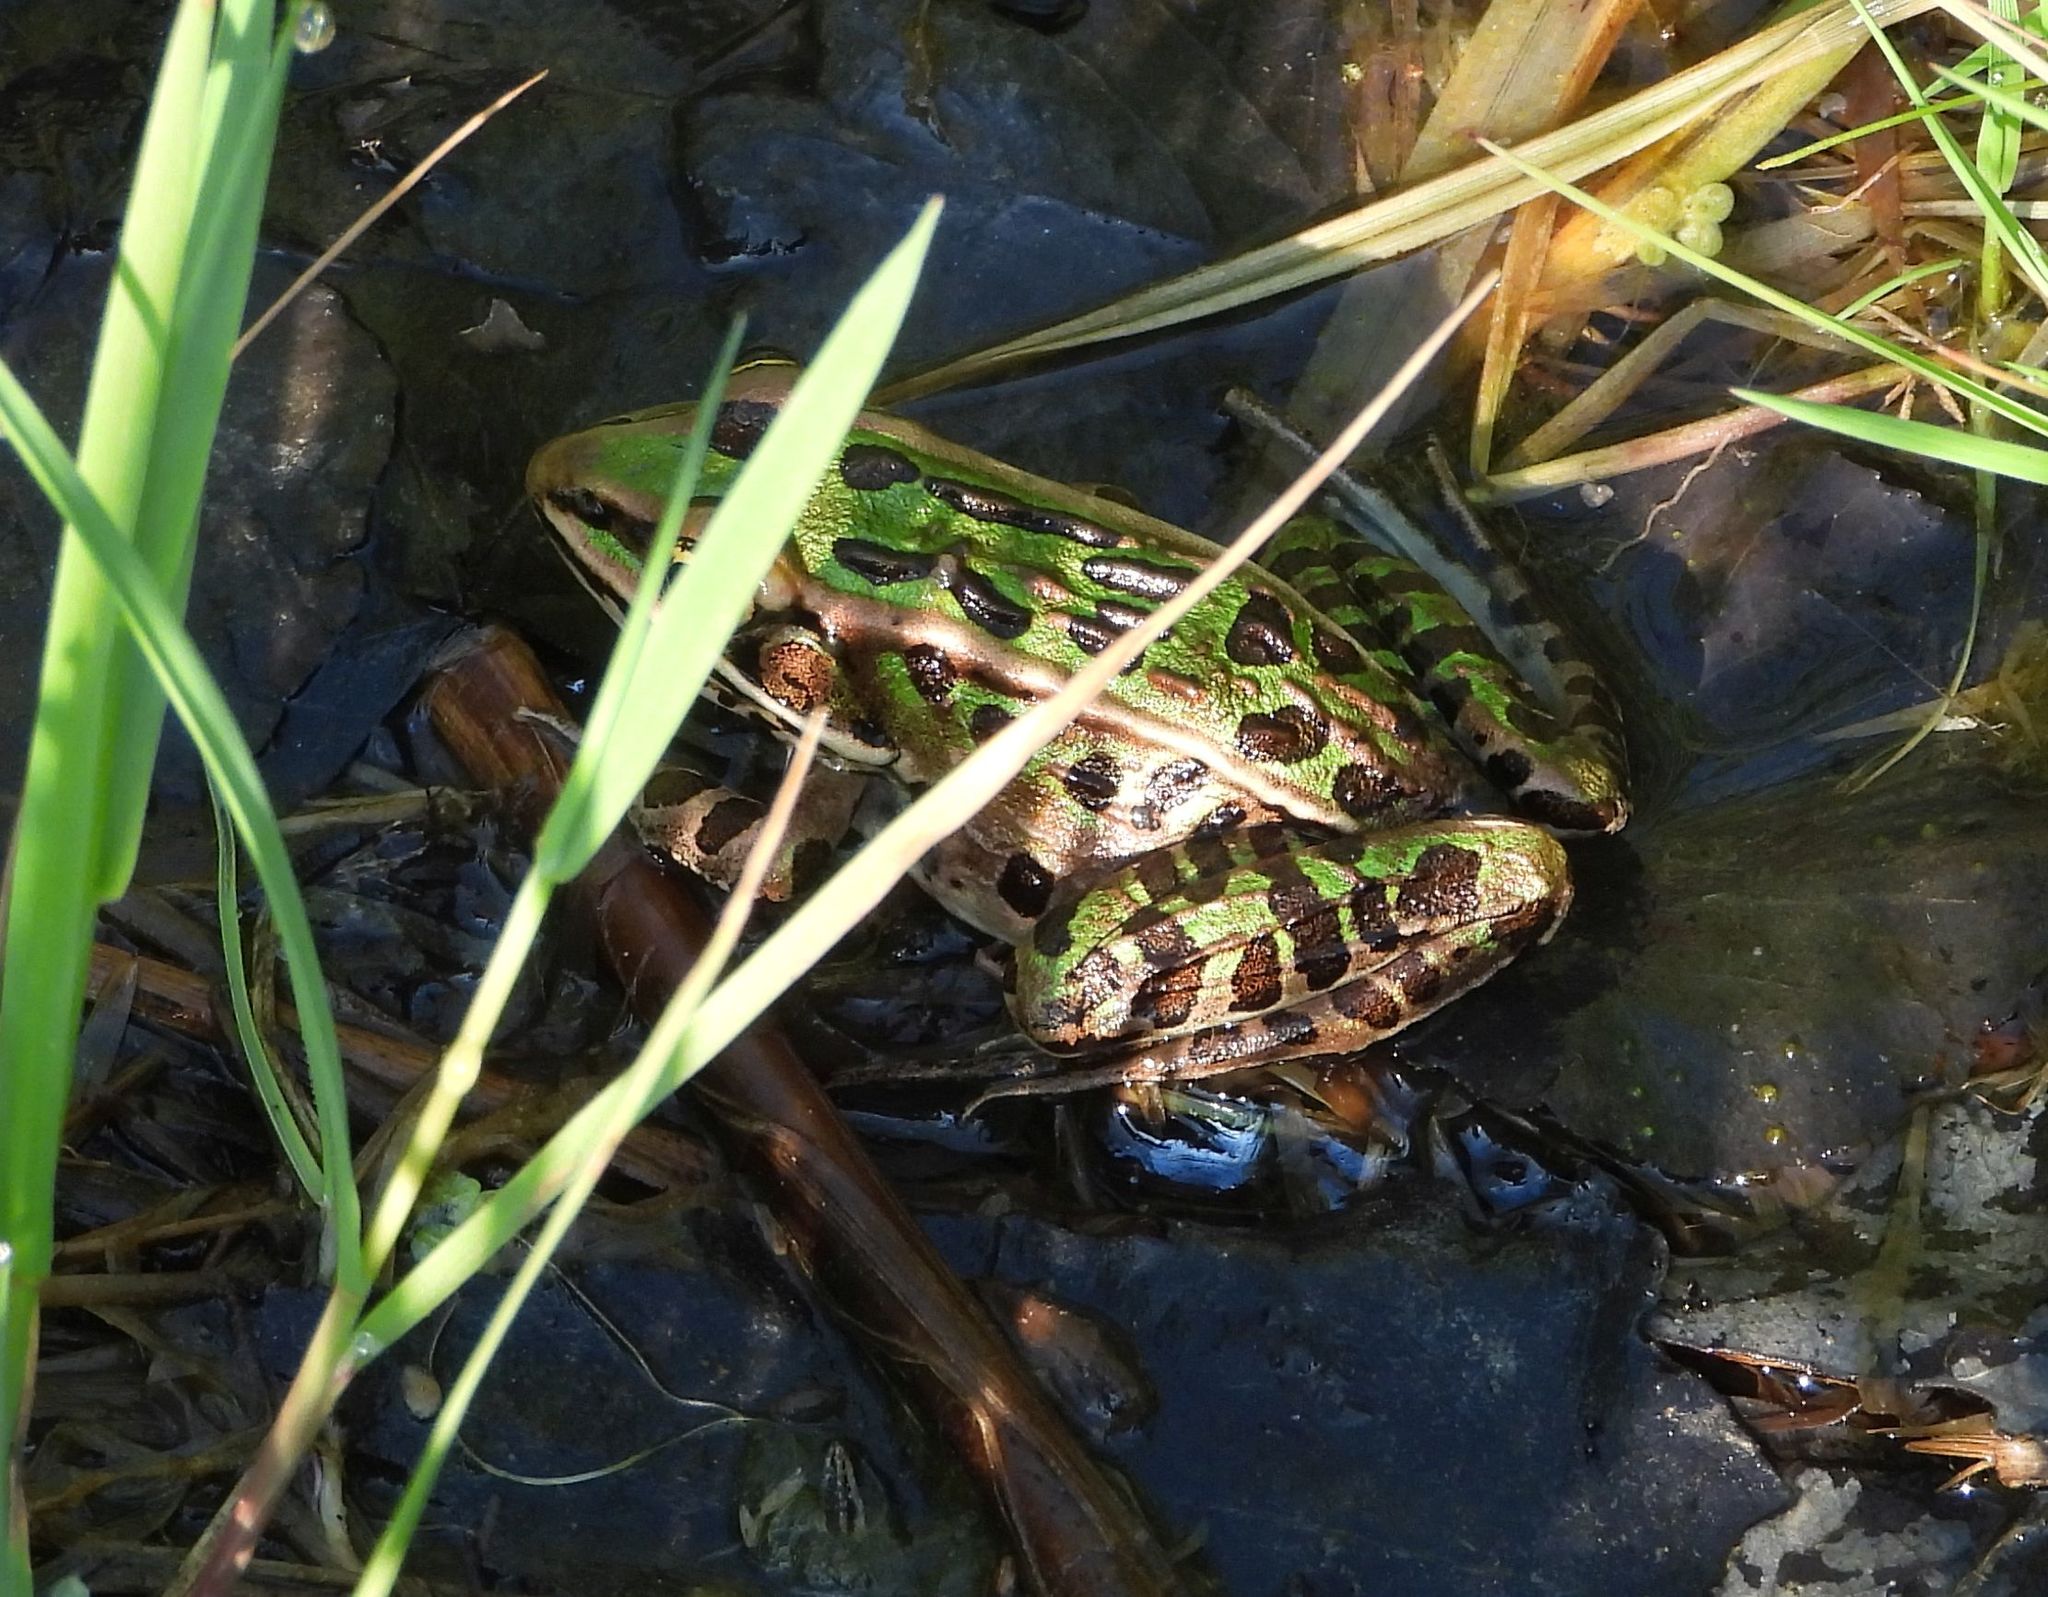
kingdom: Animalia
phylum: Chordata
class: Amphibia
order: Anura
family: Ranidae
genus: Lithobates
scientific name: Lithobates pipiens
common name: Northern leopard frog
